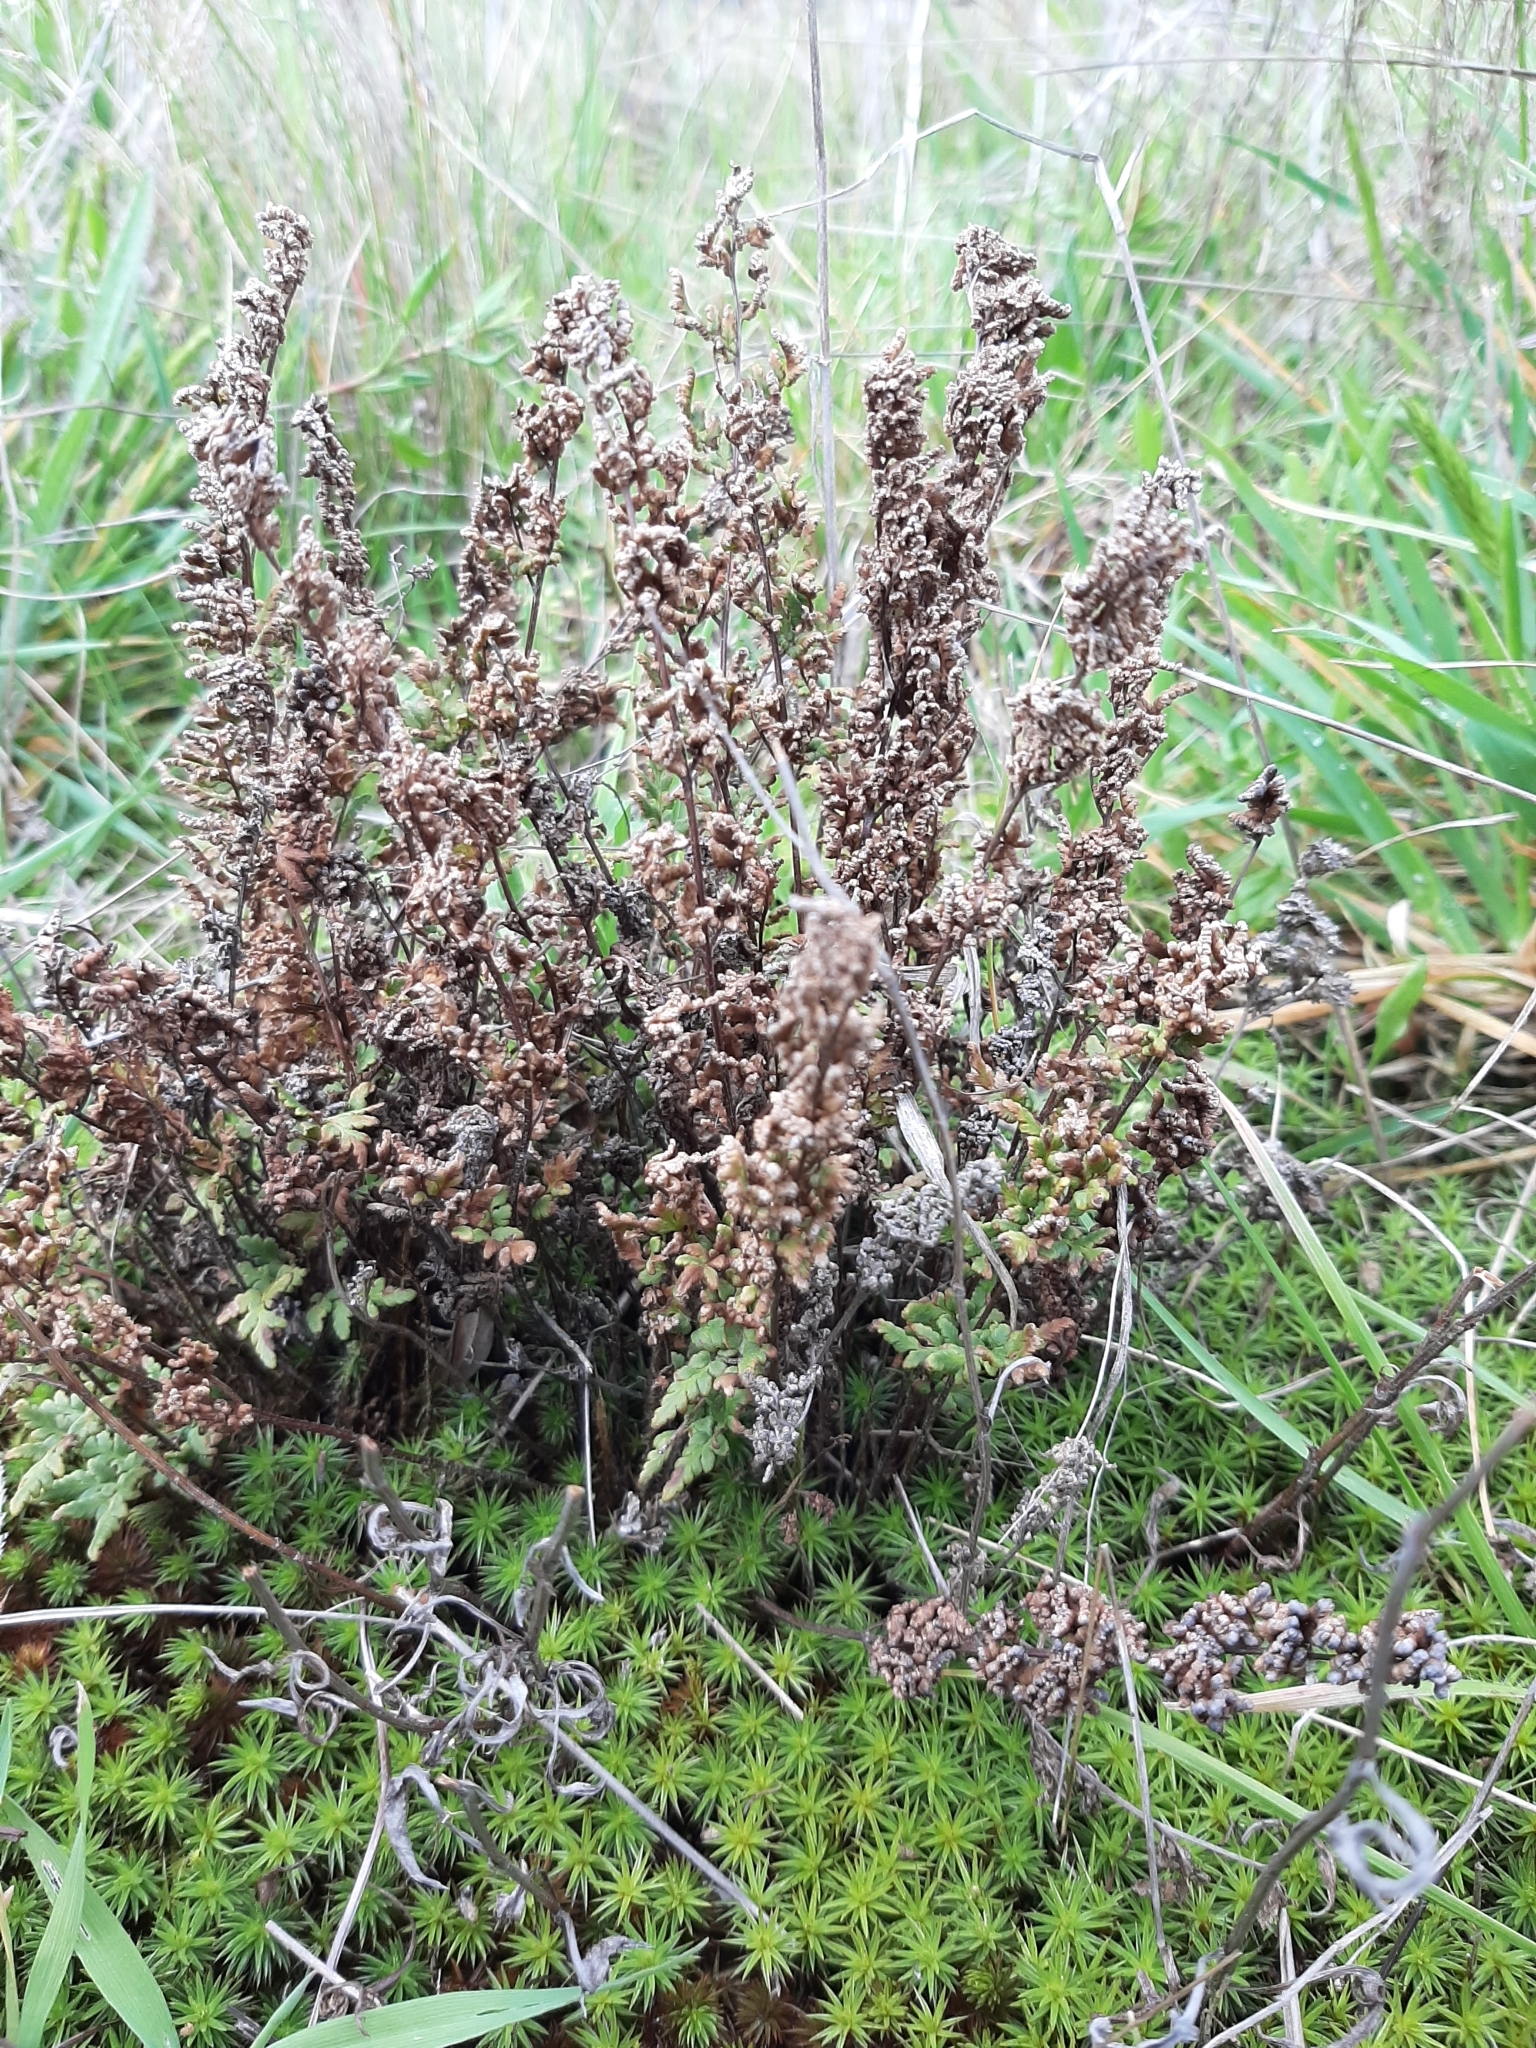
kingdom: Plantae
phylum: Tracheophyta
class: Polypodiopsida
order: Polypodiales
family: Pteridaceae
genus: Cheilanthes
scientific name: Cheilanthes sieberi
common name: Mulga fern
